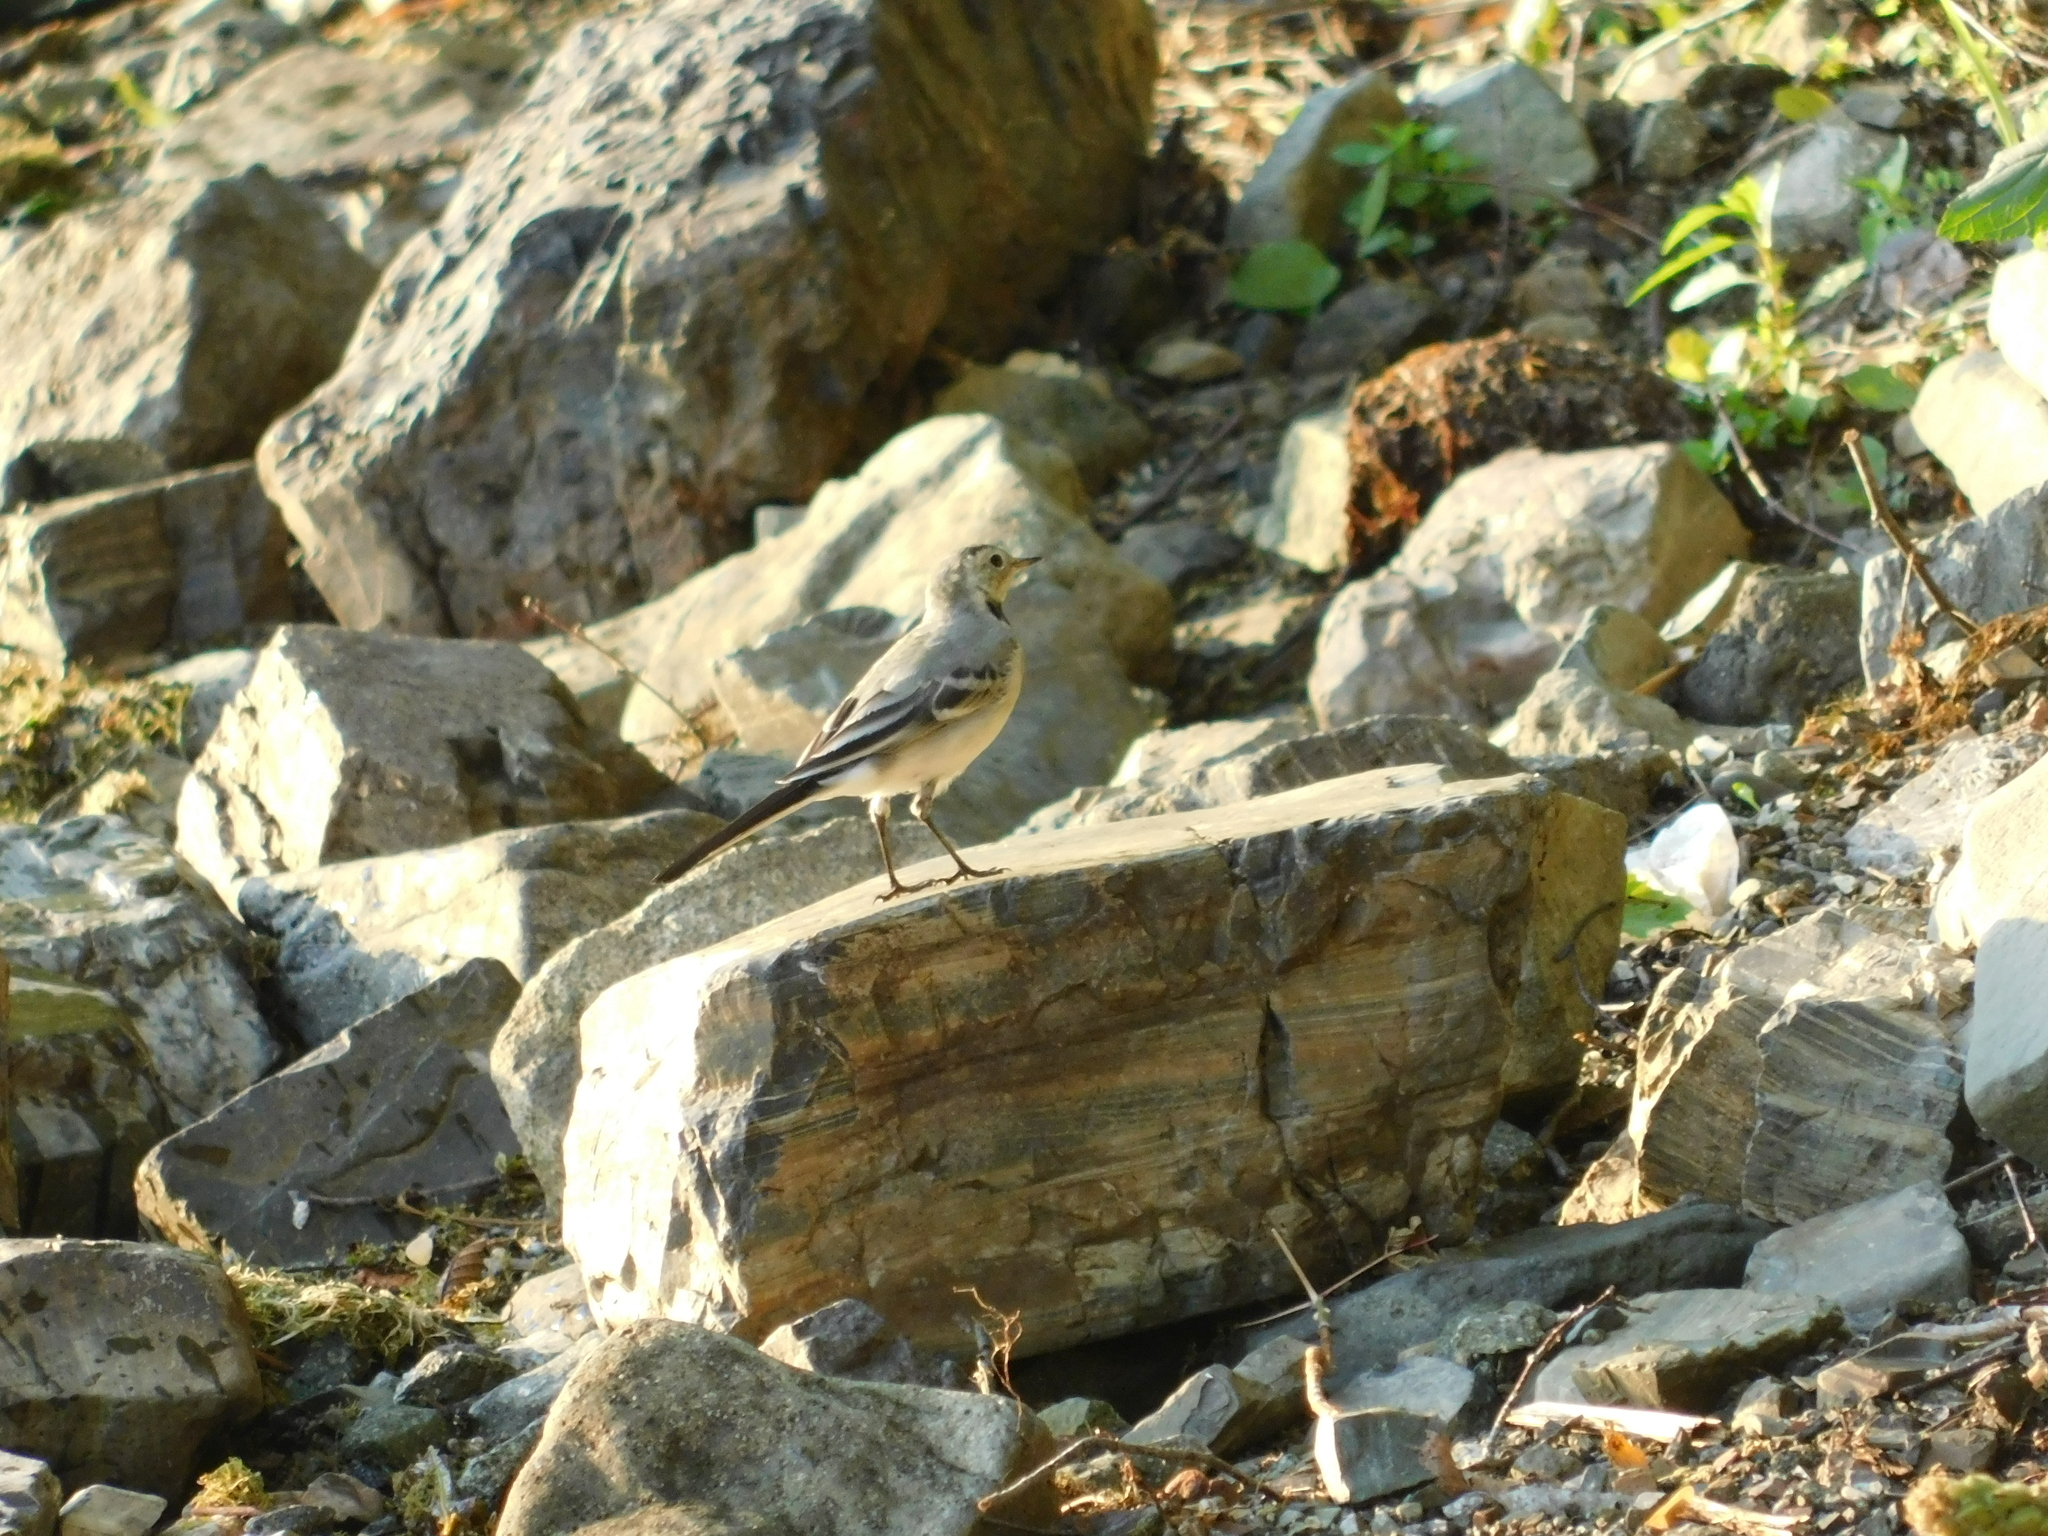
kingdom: Animalia
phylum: Chordata
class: Aves
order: Passeriformes
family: Motacillidae
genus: Motacilla
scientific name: Motacilla alba
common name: White wagtail
